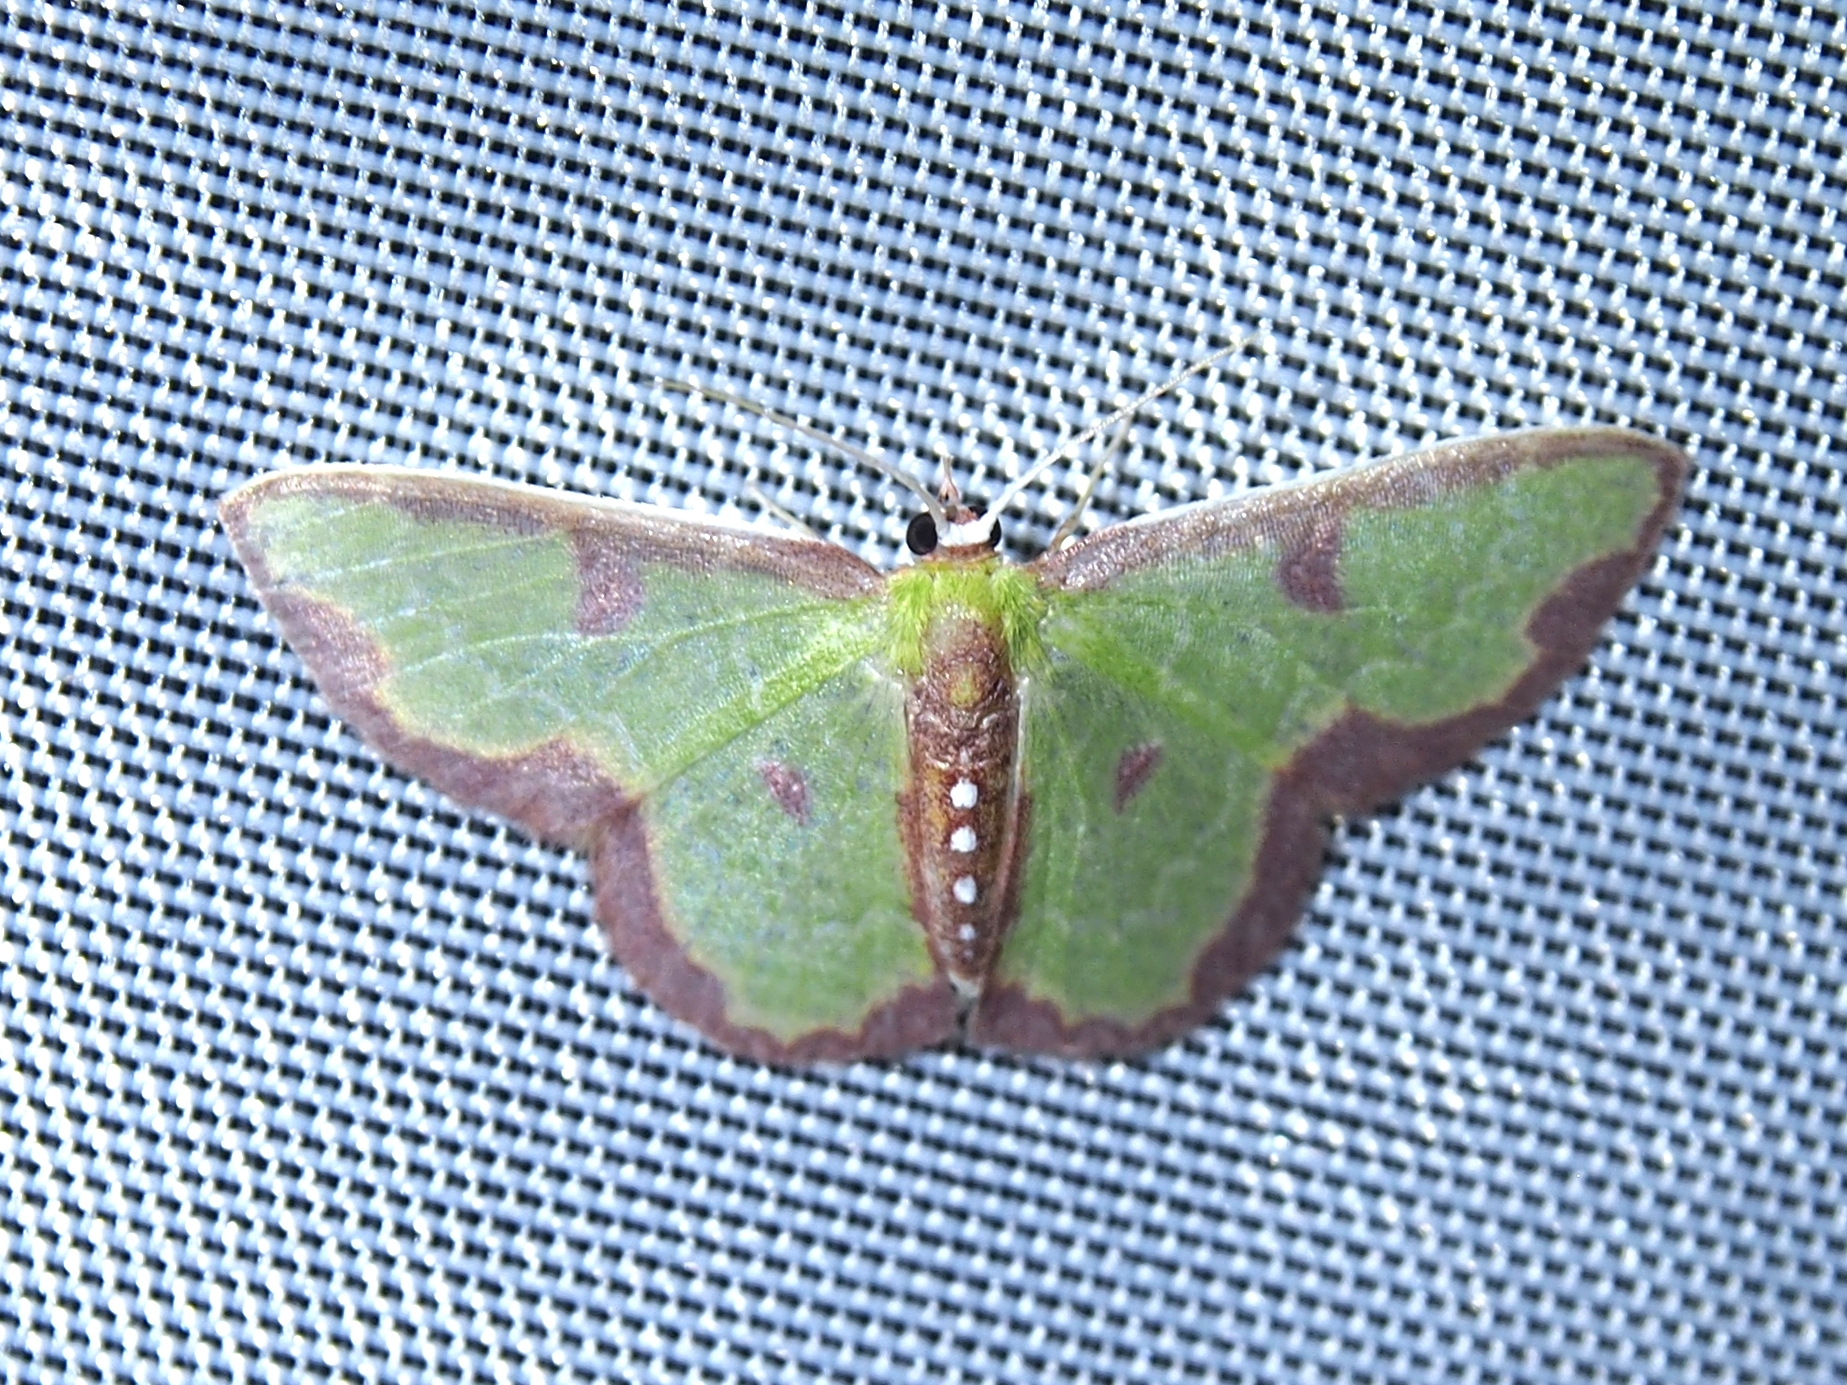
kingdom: Animalia
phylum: Arthropoda
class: Insecta
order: Lepidoptera
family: Geometridae
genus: Synchlora
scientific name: Synchlora dependens
